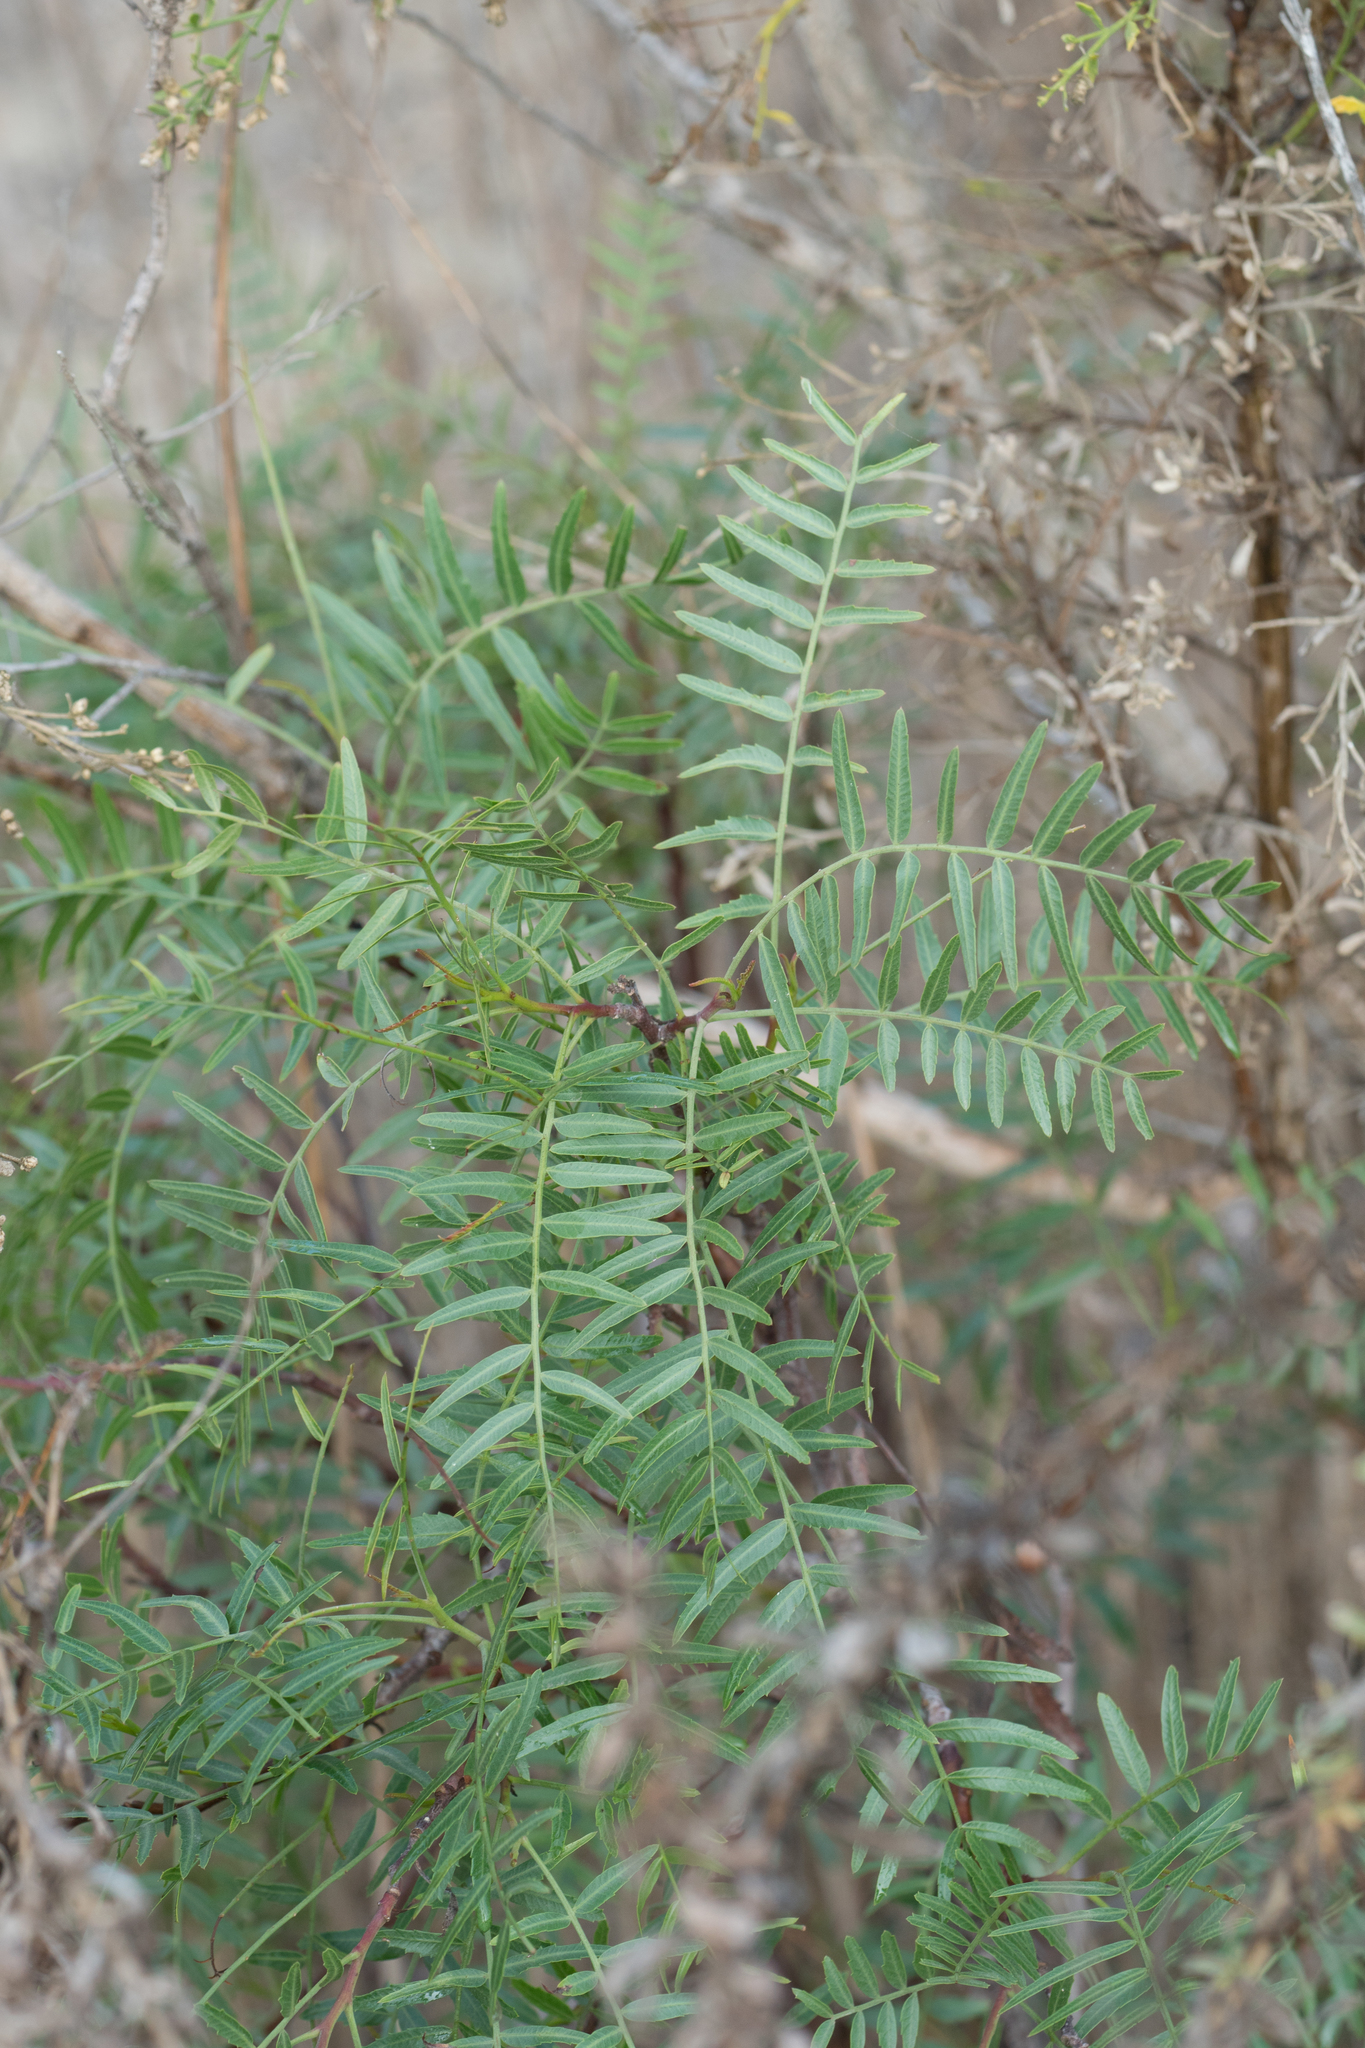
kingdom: Plantae
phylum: Tracheophyta
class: Magnoliopsida
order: Sapindales
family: Anacardiaceae
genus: Schinus
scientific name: Schinus molle
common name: Peruvian peppertree
